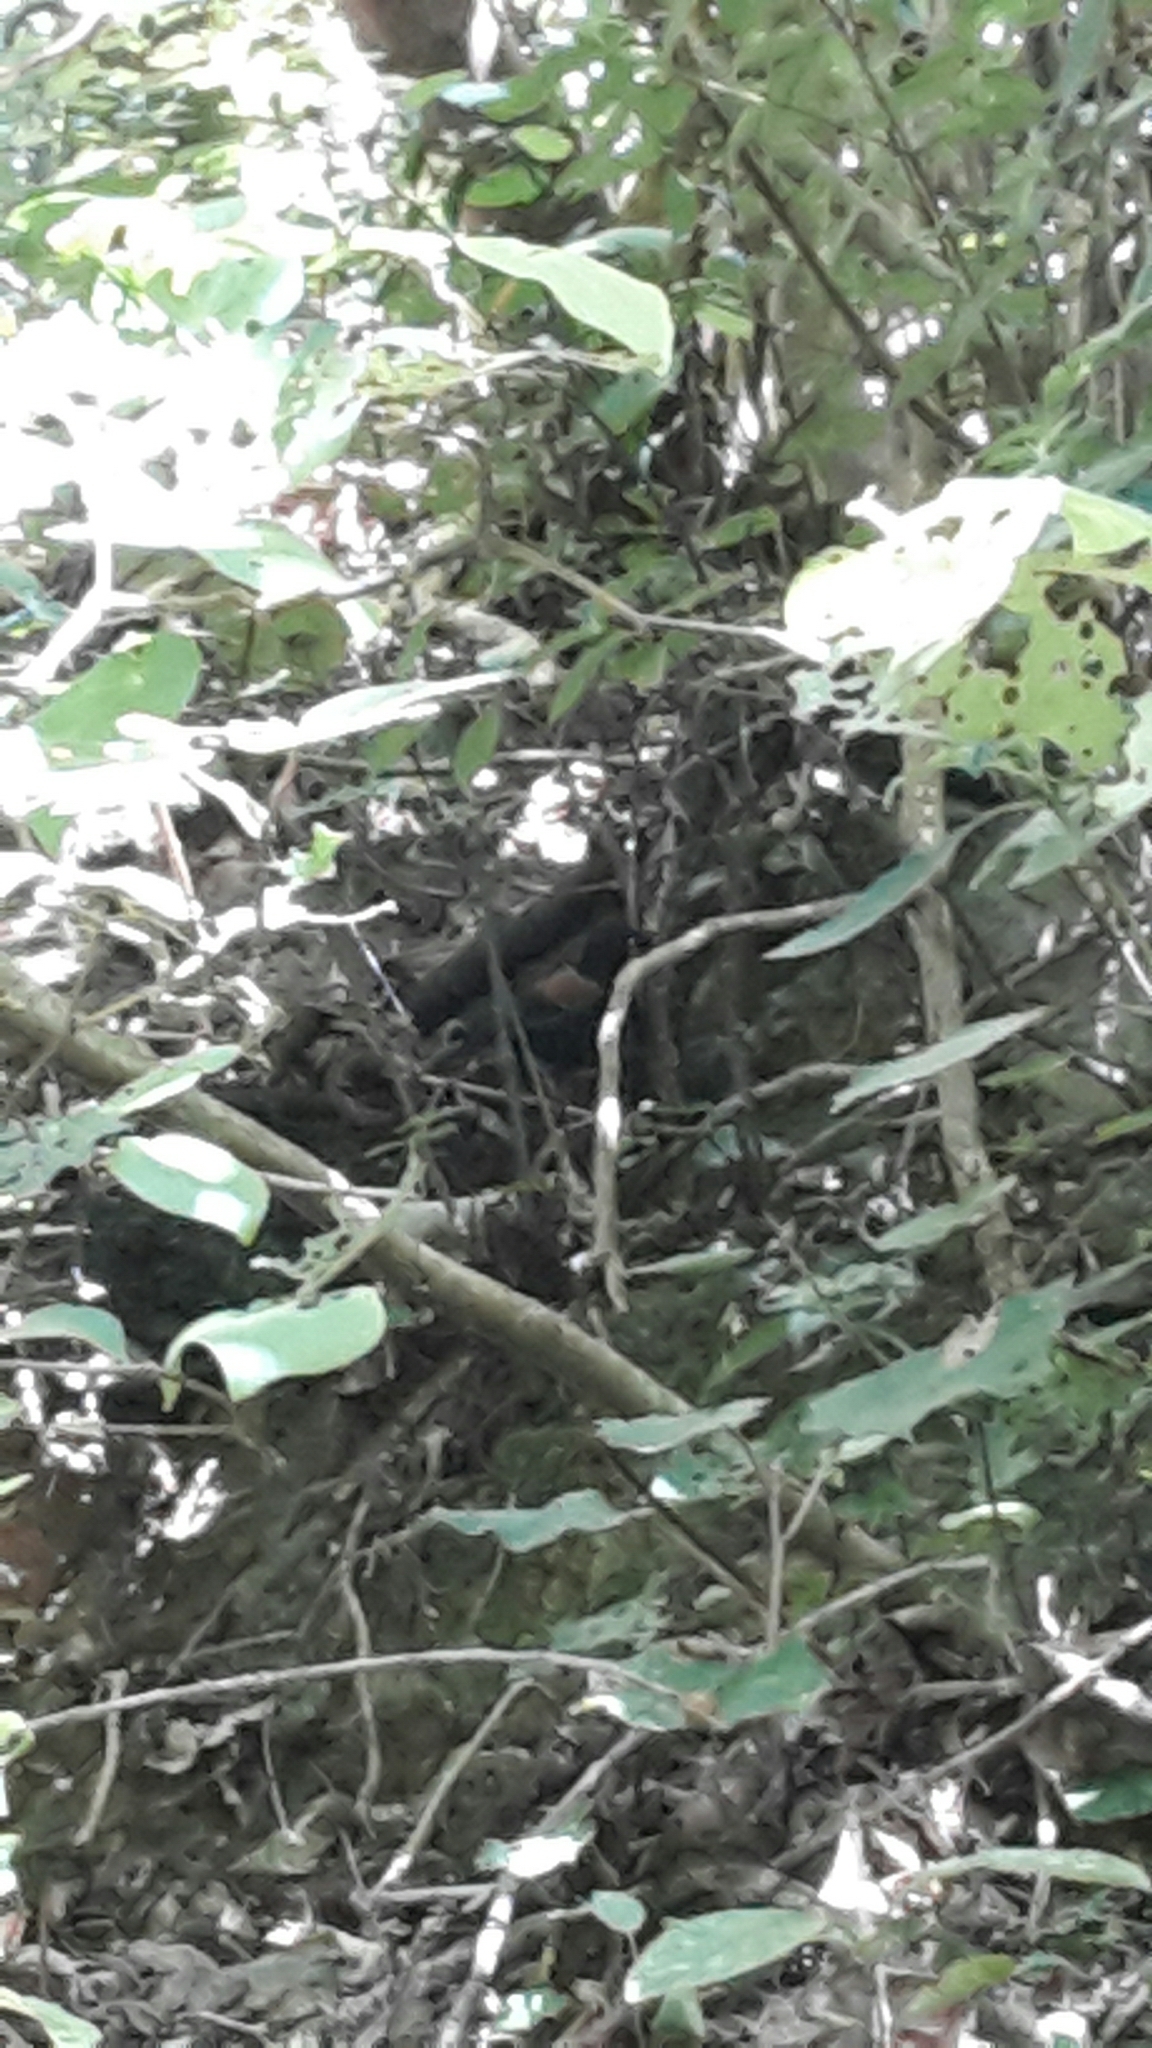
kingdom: Animalia
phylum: Chordata
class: Aves
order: Passeriformes
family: Callaeatidae
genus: Philesturnus
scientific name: Philesturnus carunculatus
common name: South island saddleback
